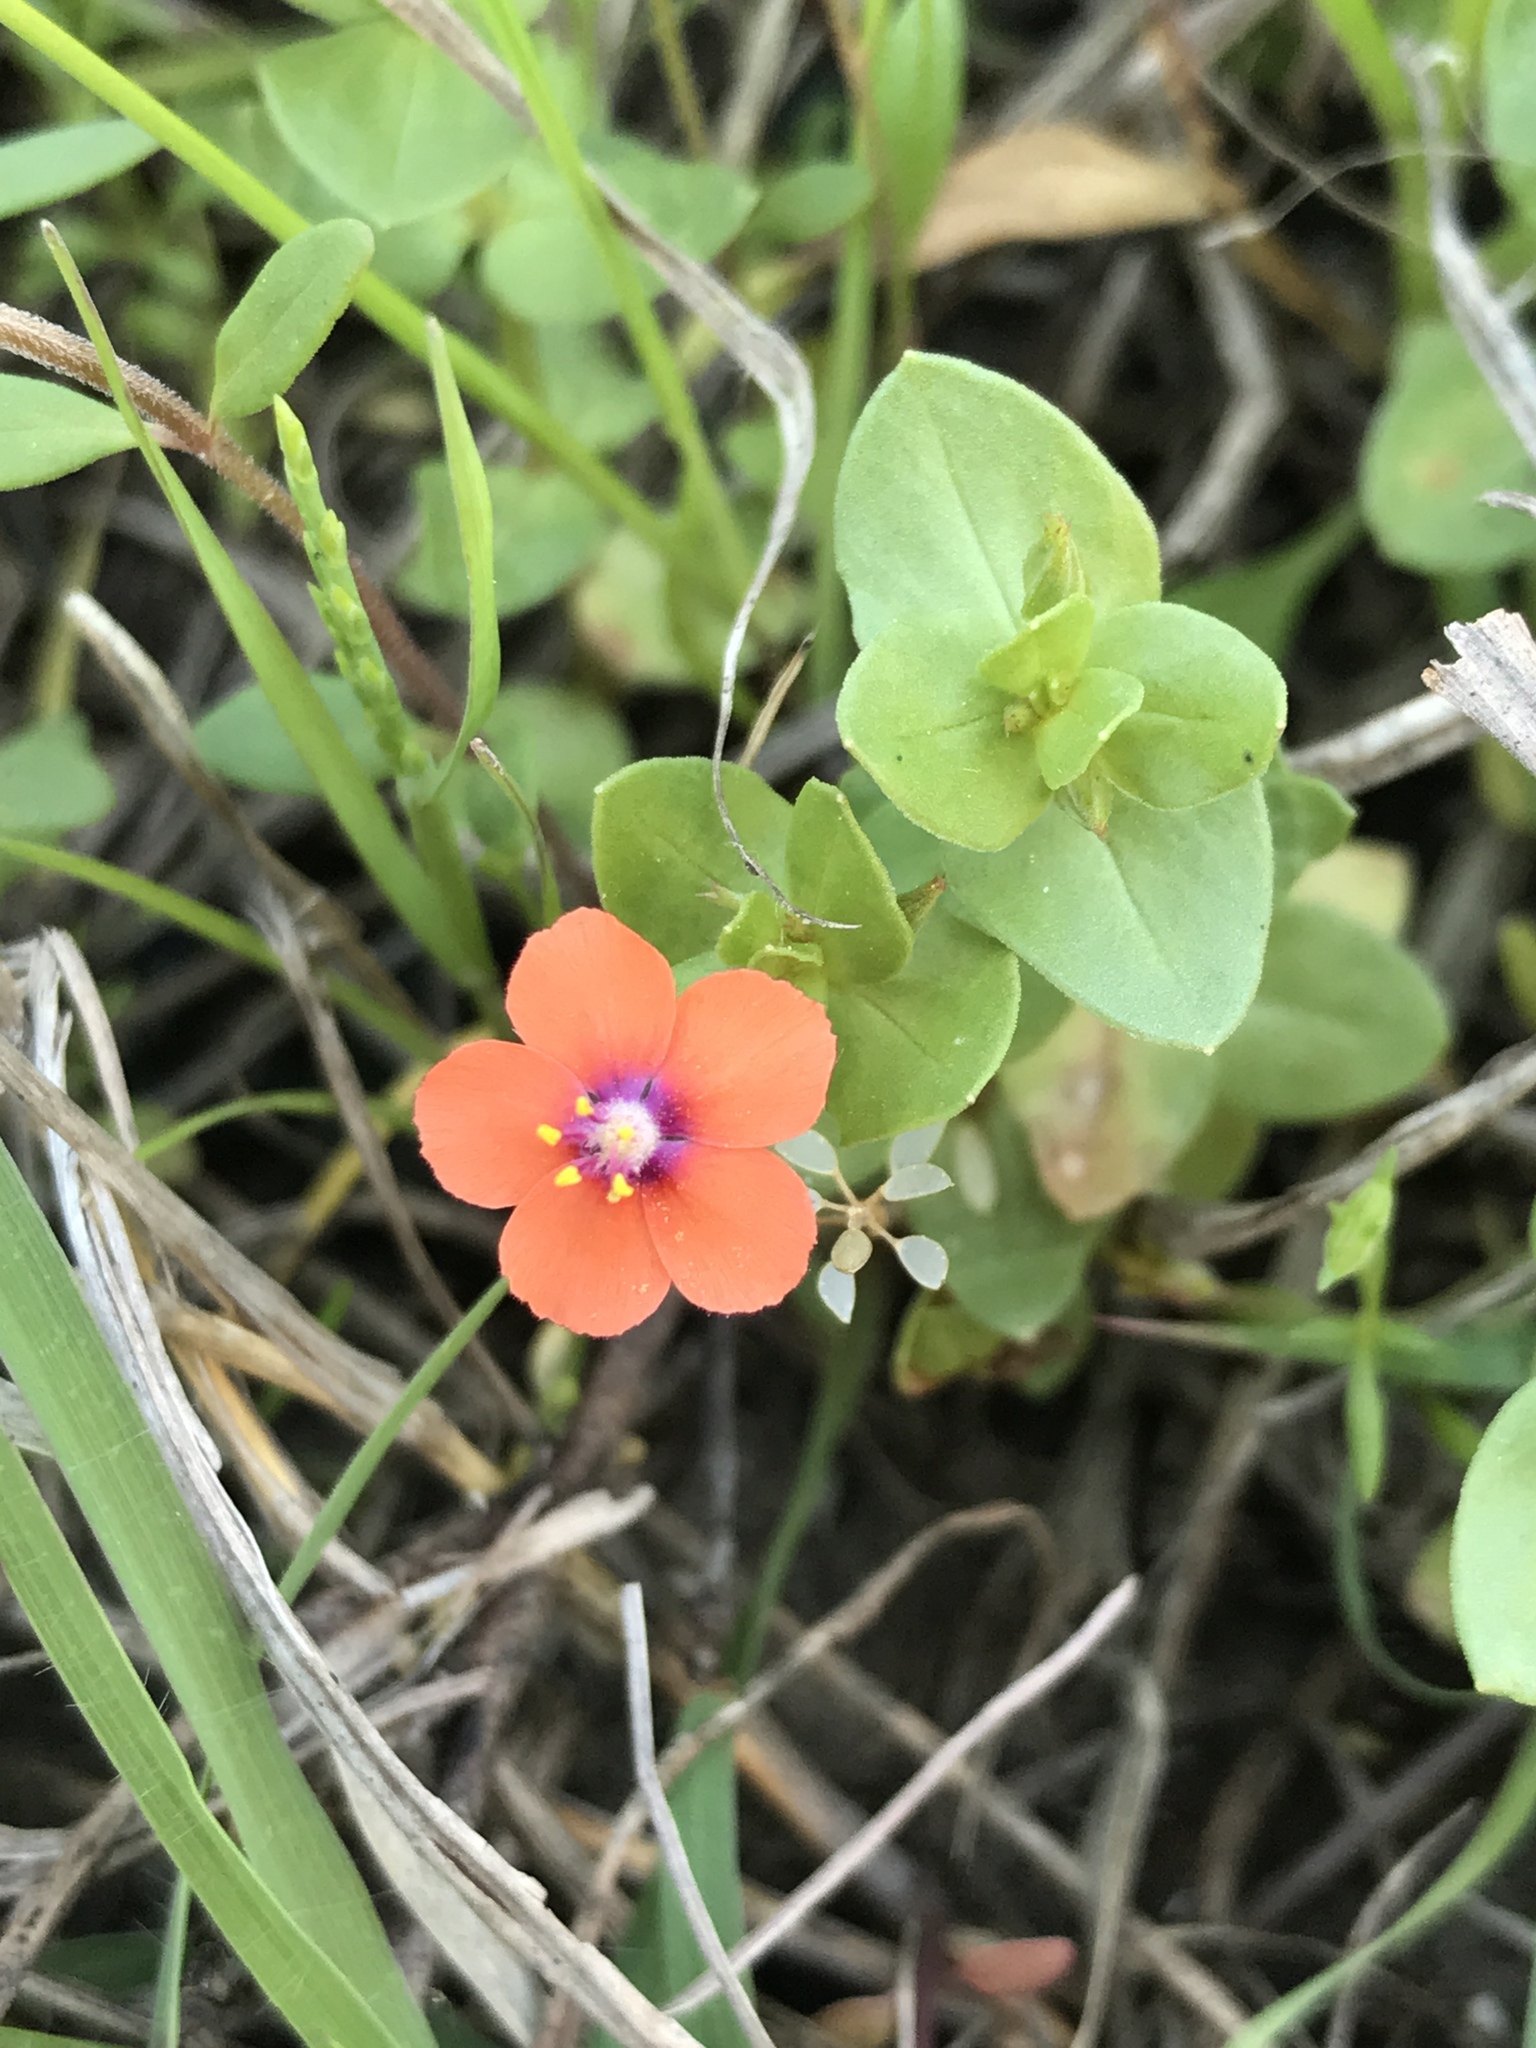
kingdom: Plantae
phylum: Tracheophyta
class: Magnoliopsida
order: Ericales
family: Primulaceae
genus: Lysimachia
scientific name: Lysimachia arvensis
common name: Scarlet pimpernel
